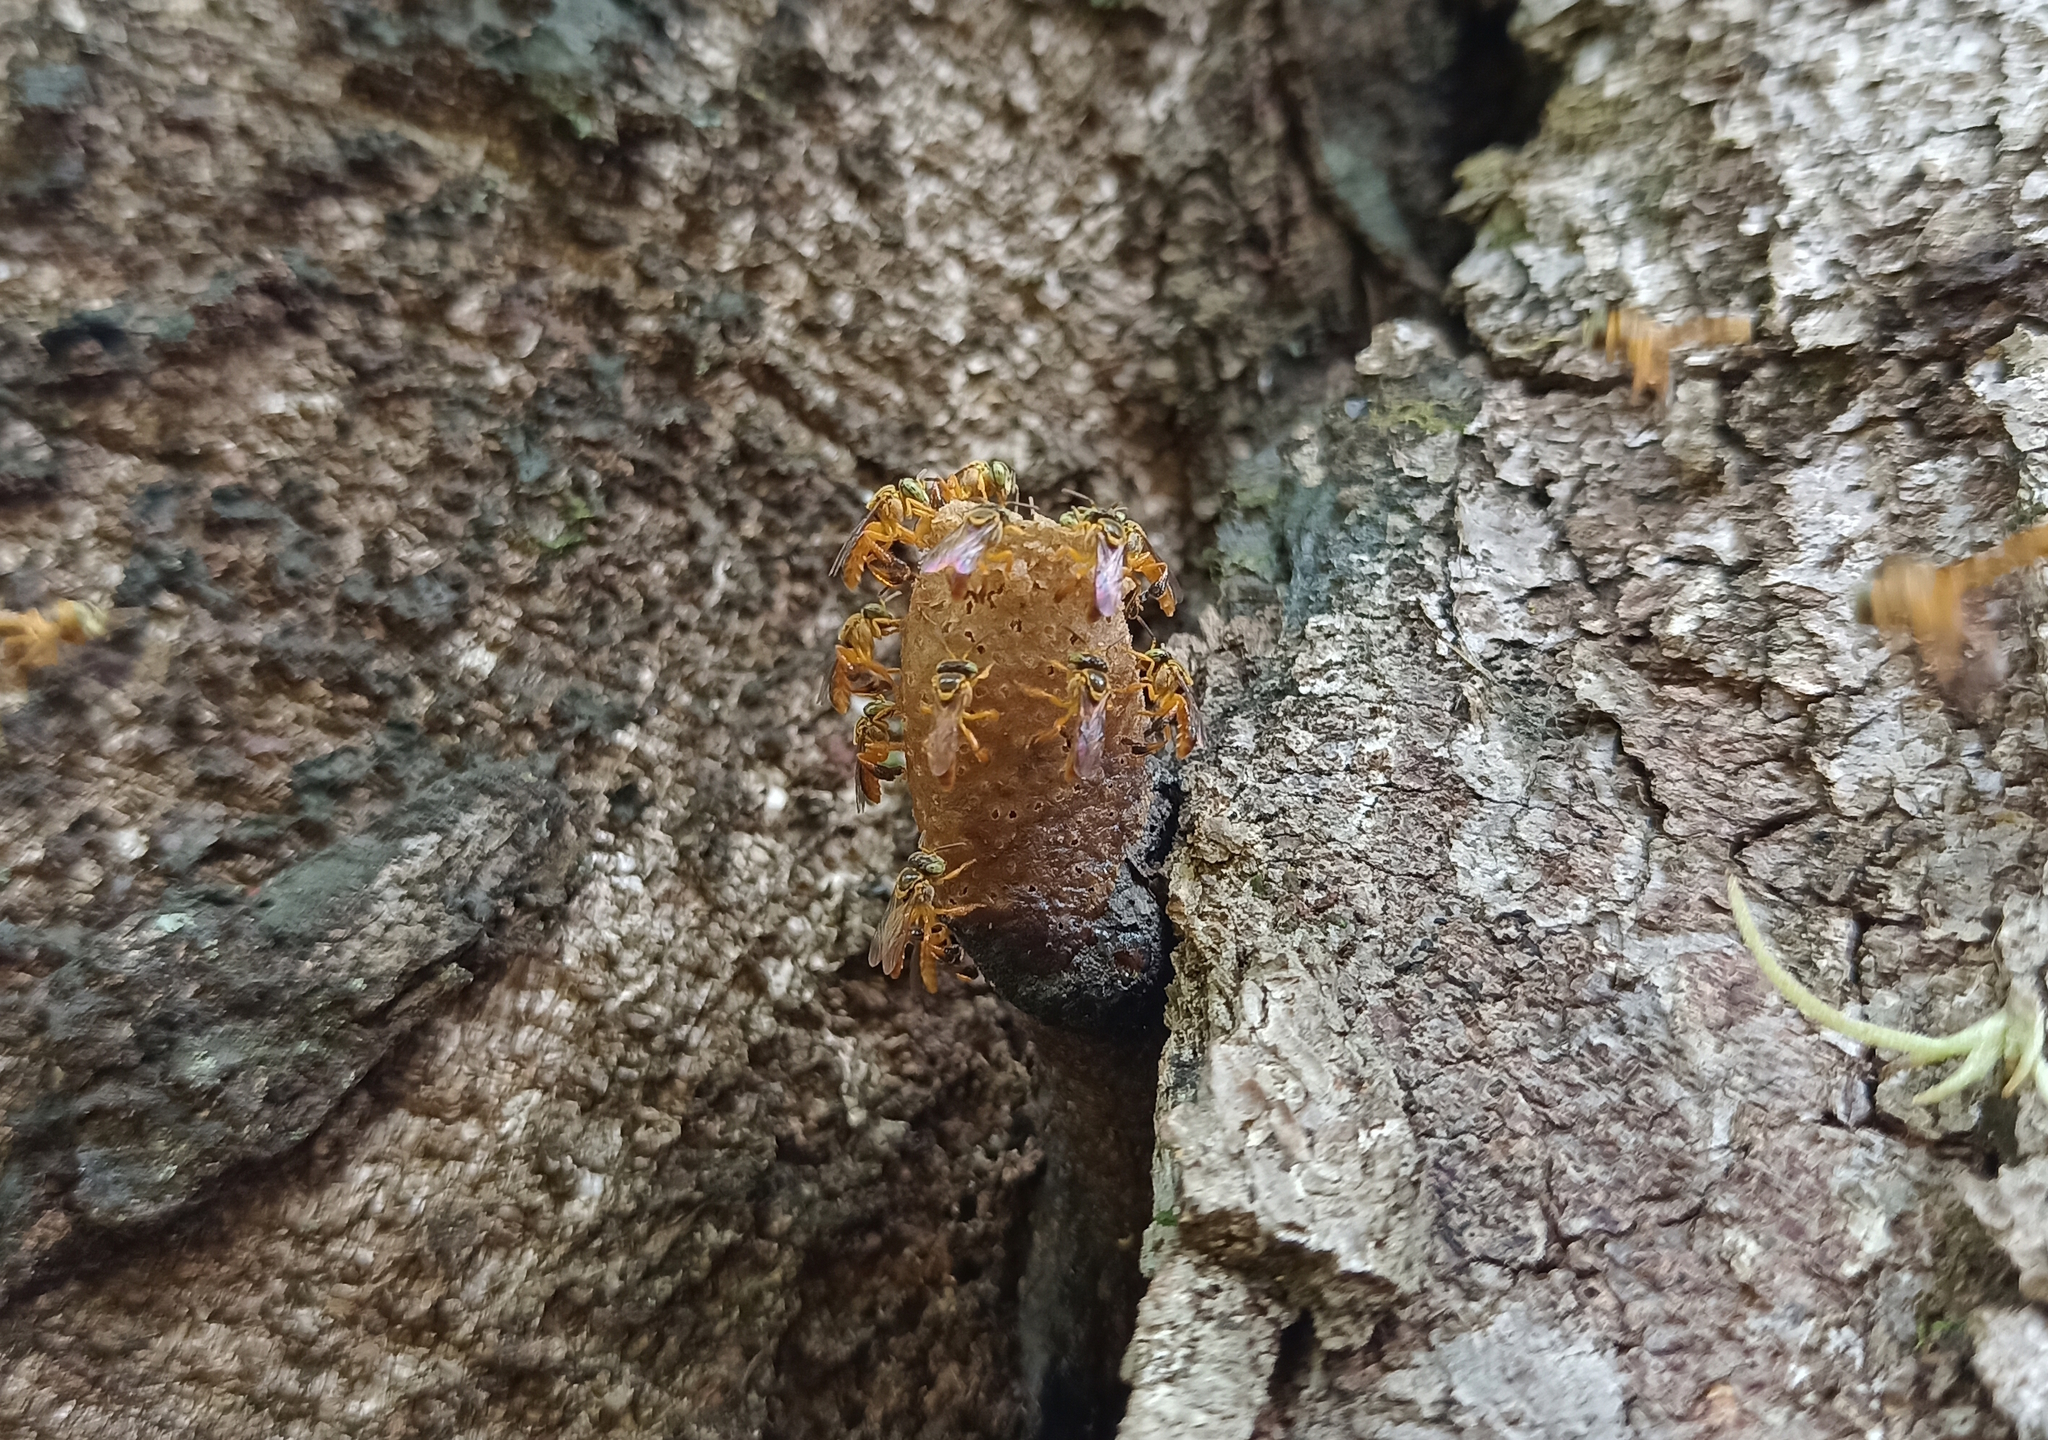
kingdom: Animalia
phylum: Arthropoda
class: Insecta
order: Hymenoptera
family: Apidae
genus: Tetragonisca
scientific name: Tetragonisca fiebrigi
